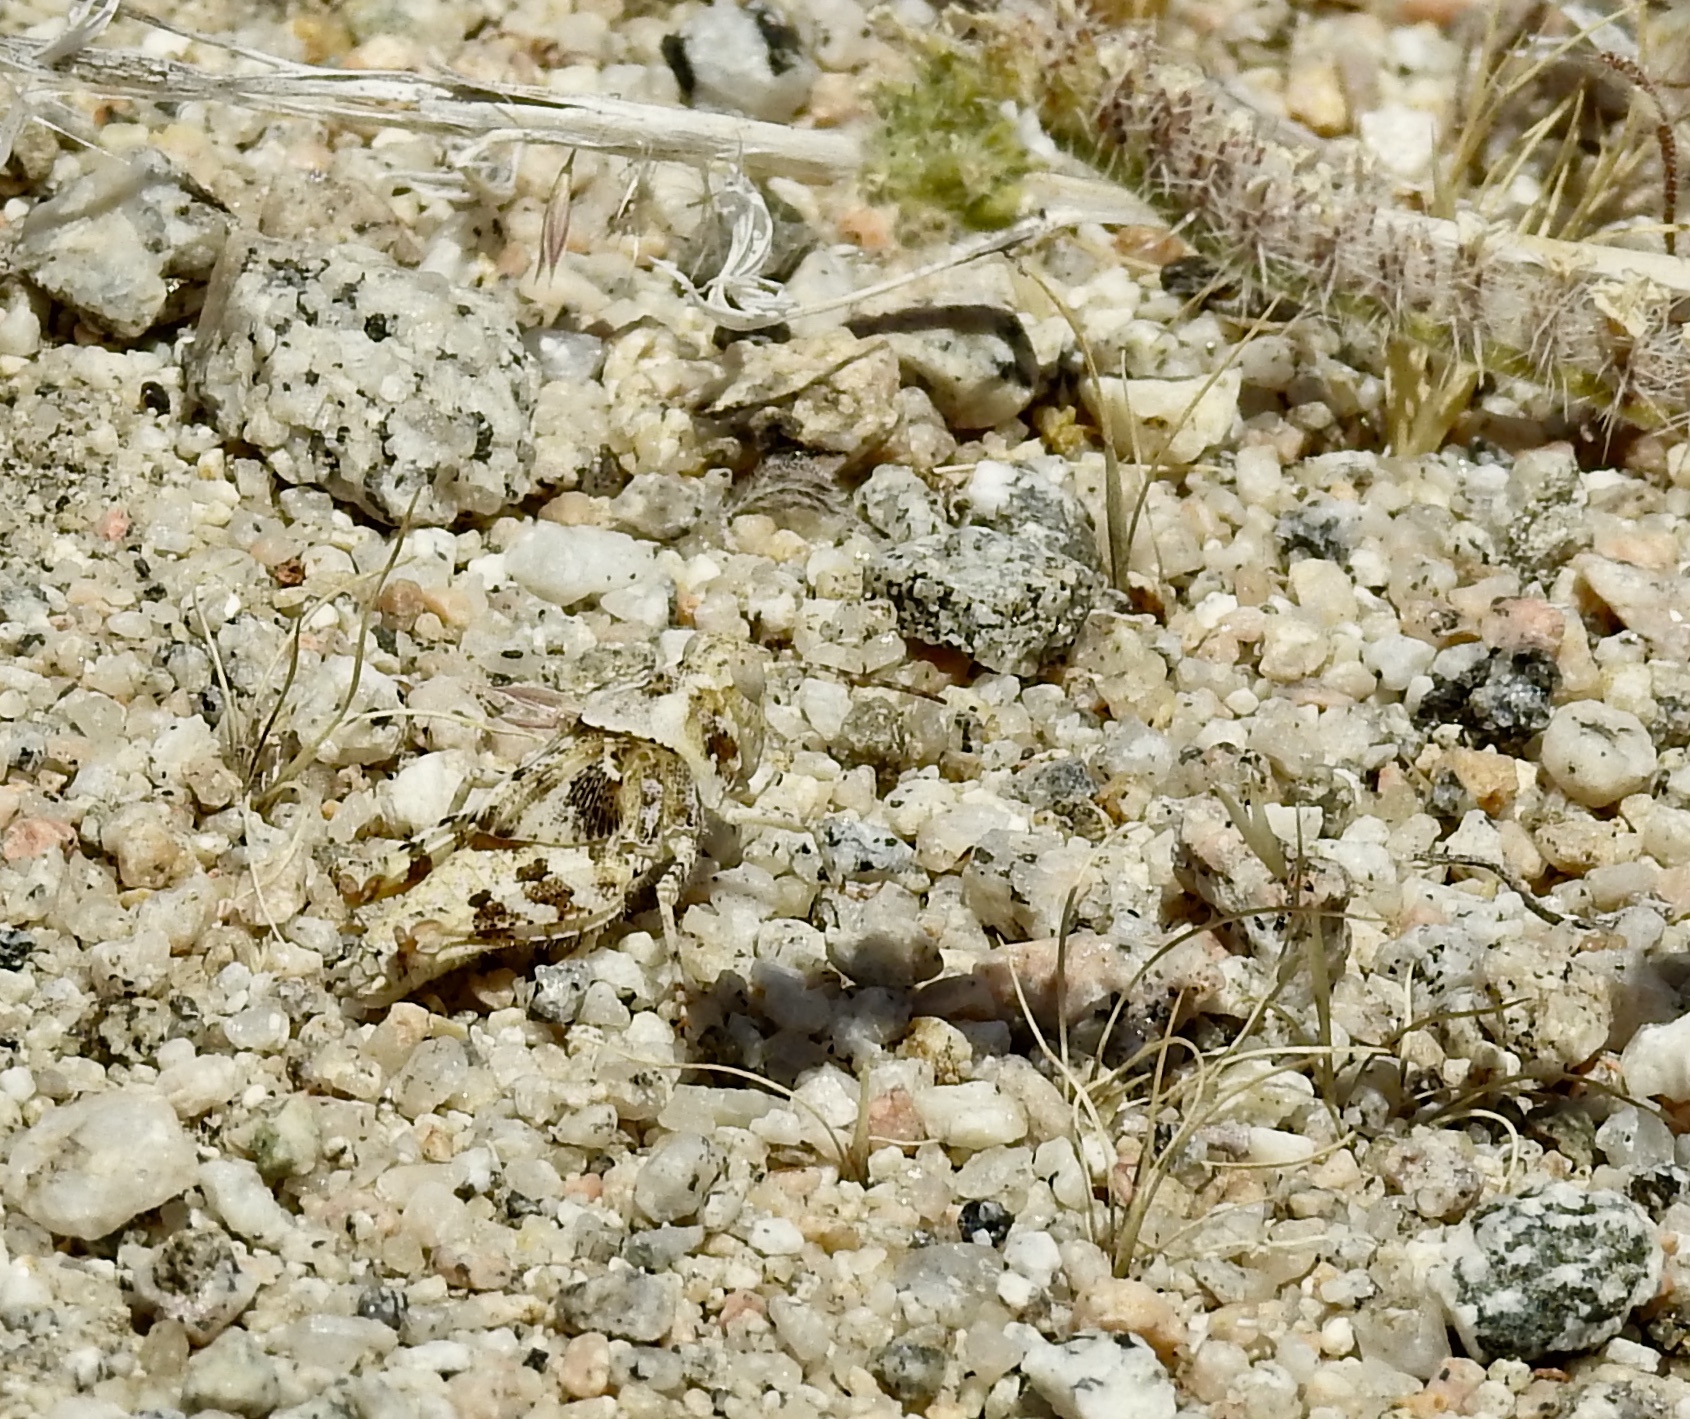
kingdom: Animalia
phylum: Arthropoda
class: Insecta
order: Orthoptera
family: Acrididae
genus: Trimerotropis
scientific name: Trimerotropis pallidipennis
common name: Pallid-winged grasshopper
